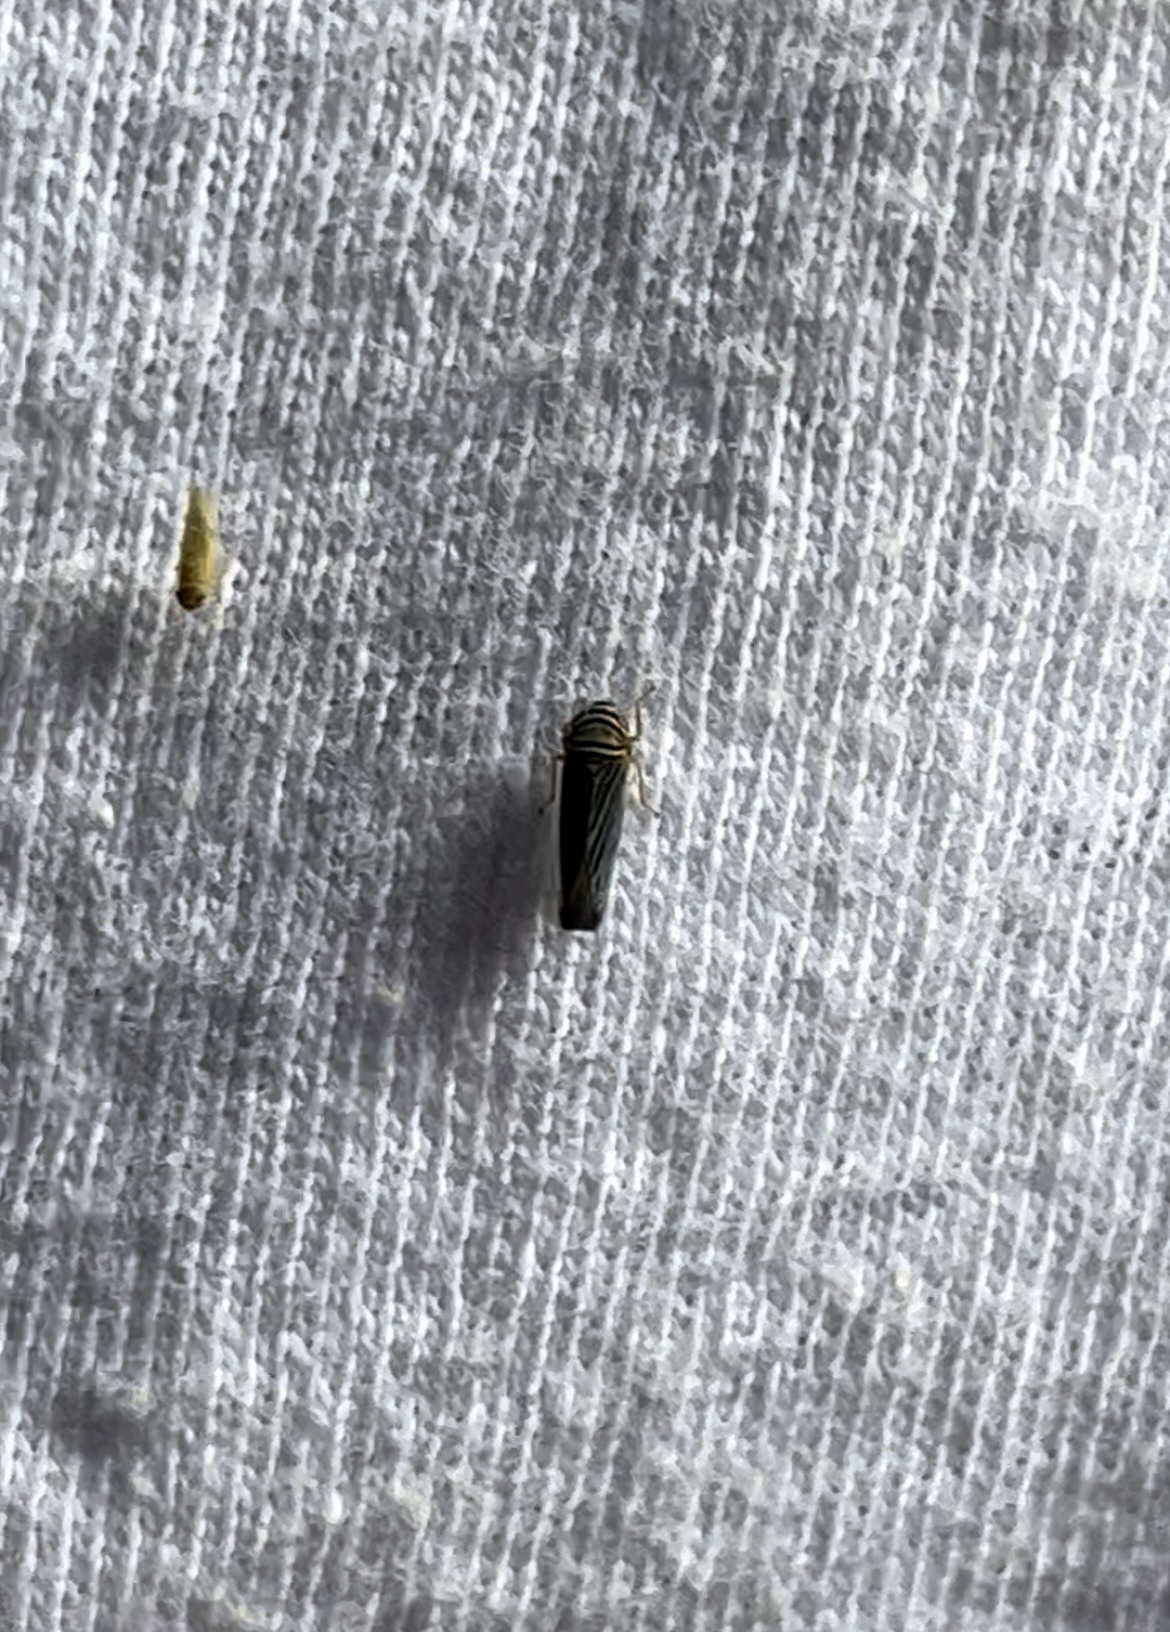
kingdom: Animalia
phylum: Arthropoda
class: Insecta
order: Hemiptera
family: Cicadellidae
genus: Tylozygus
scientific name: Tylozygus bifidus
